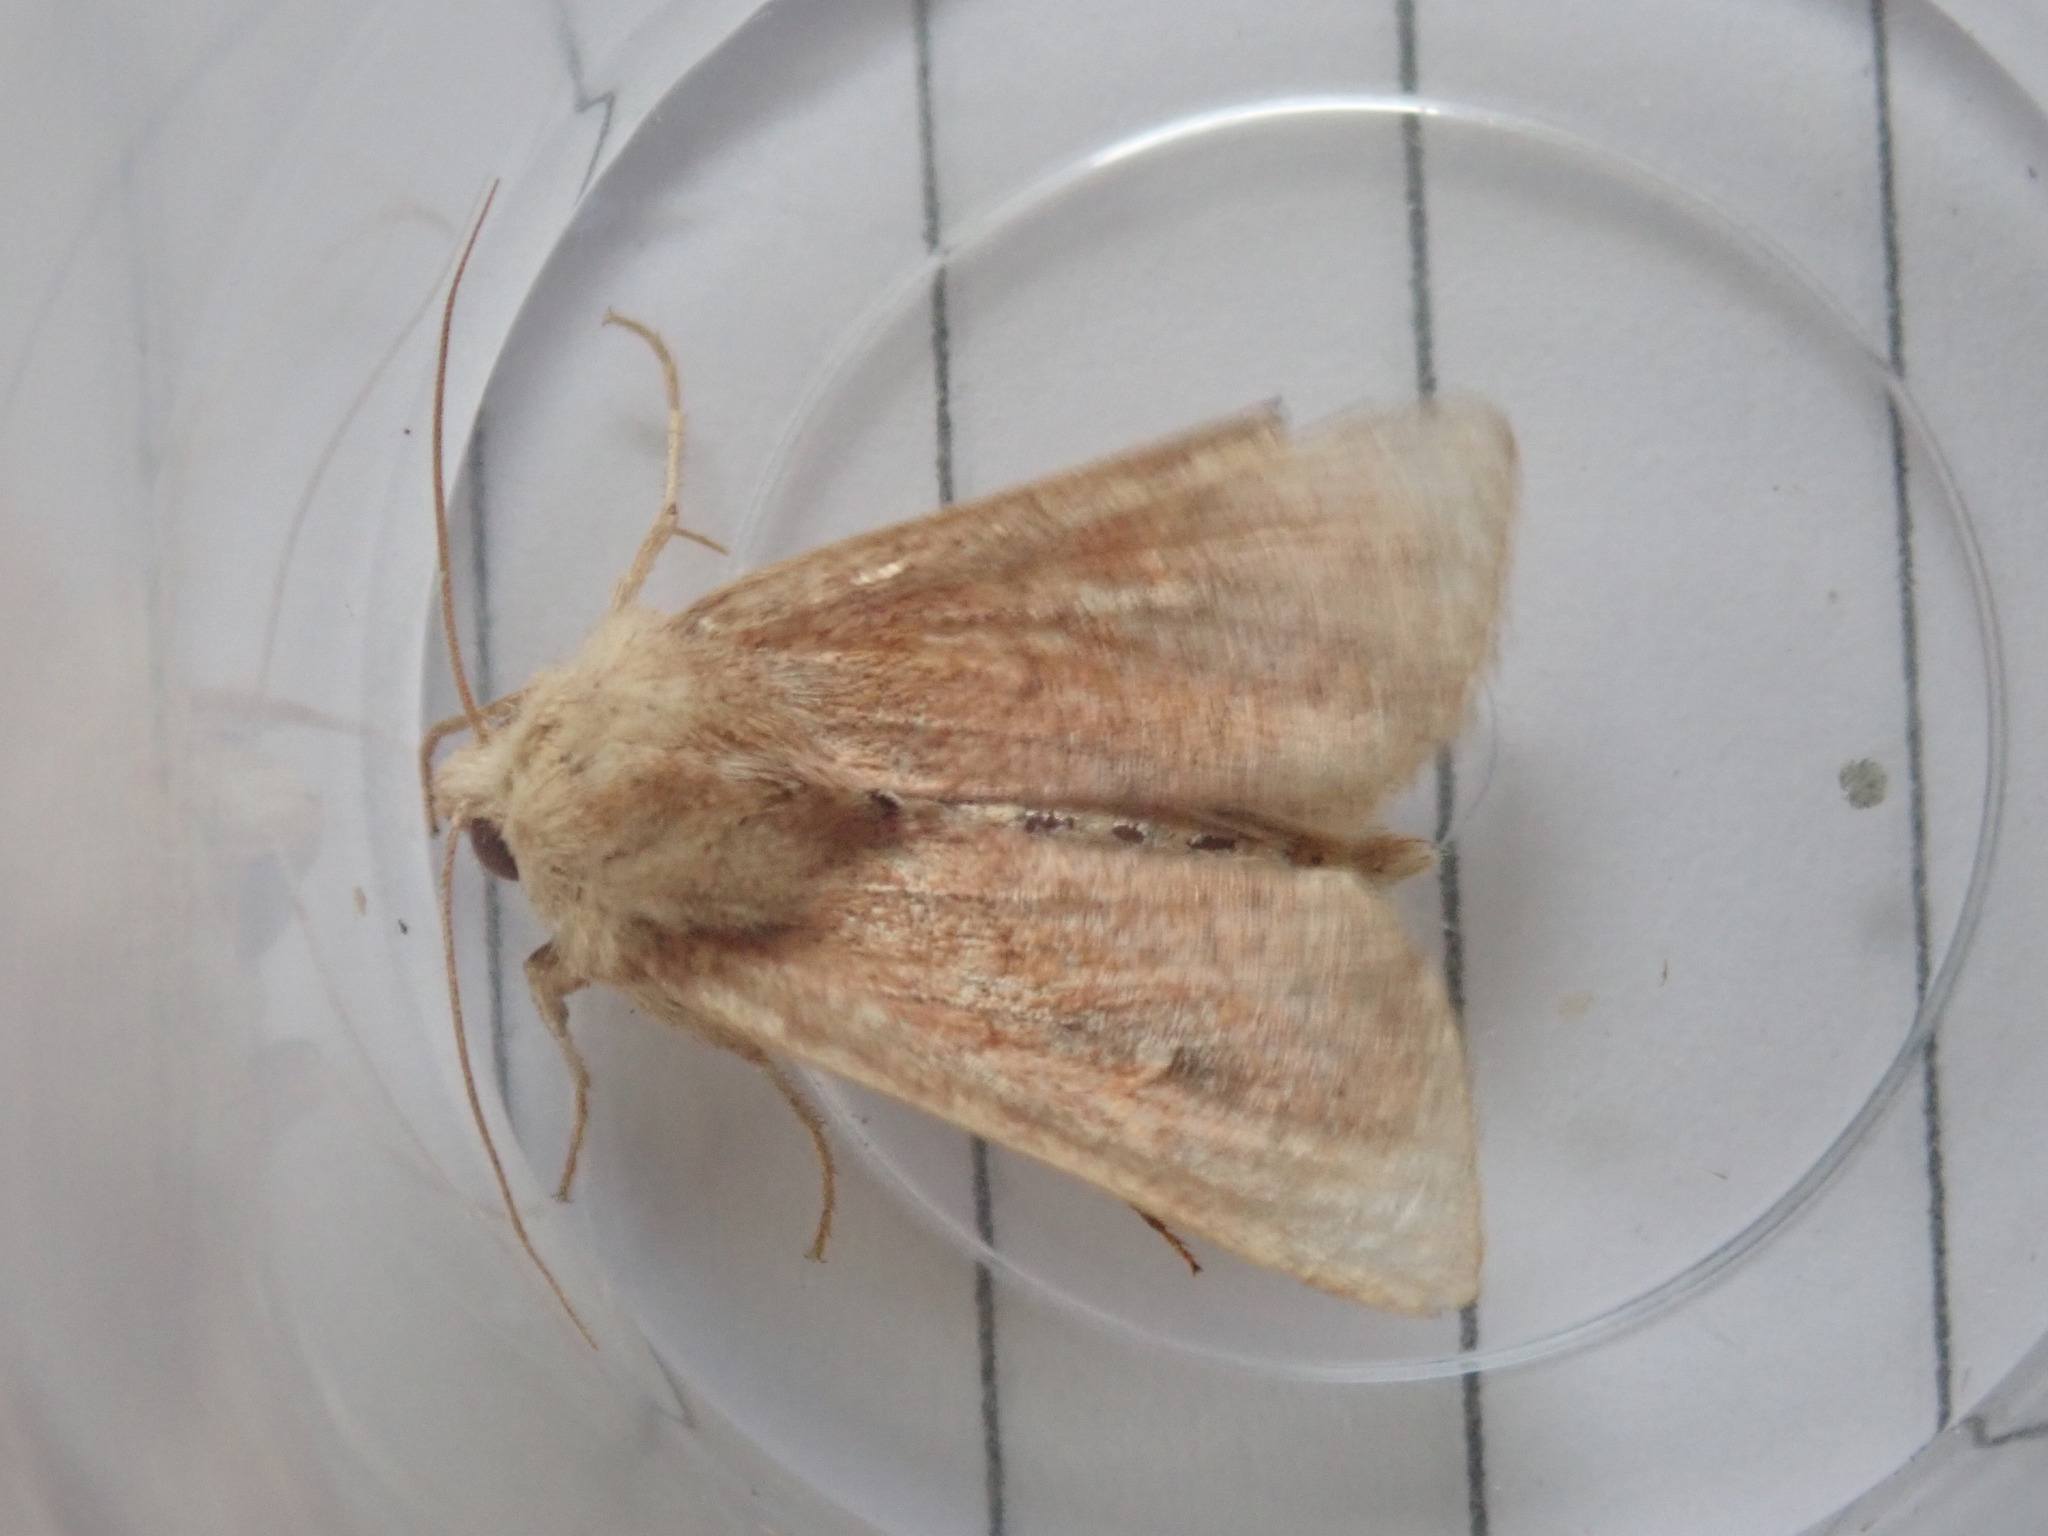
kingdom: Animalia
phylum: Arthropoda
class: Insecta
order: Lepidoptera
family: Noctuidae
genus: Mythimna
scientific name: Mythimna albipuncta
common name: White-point
